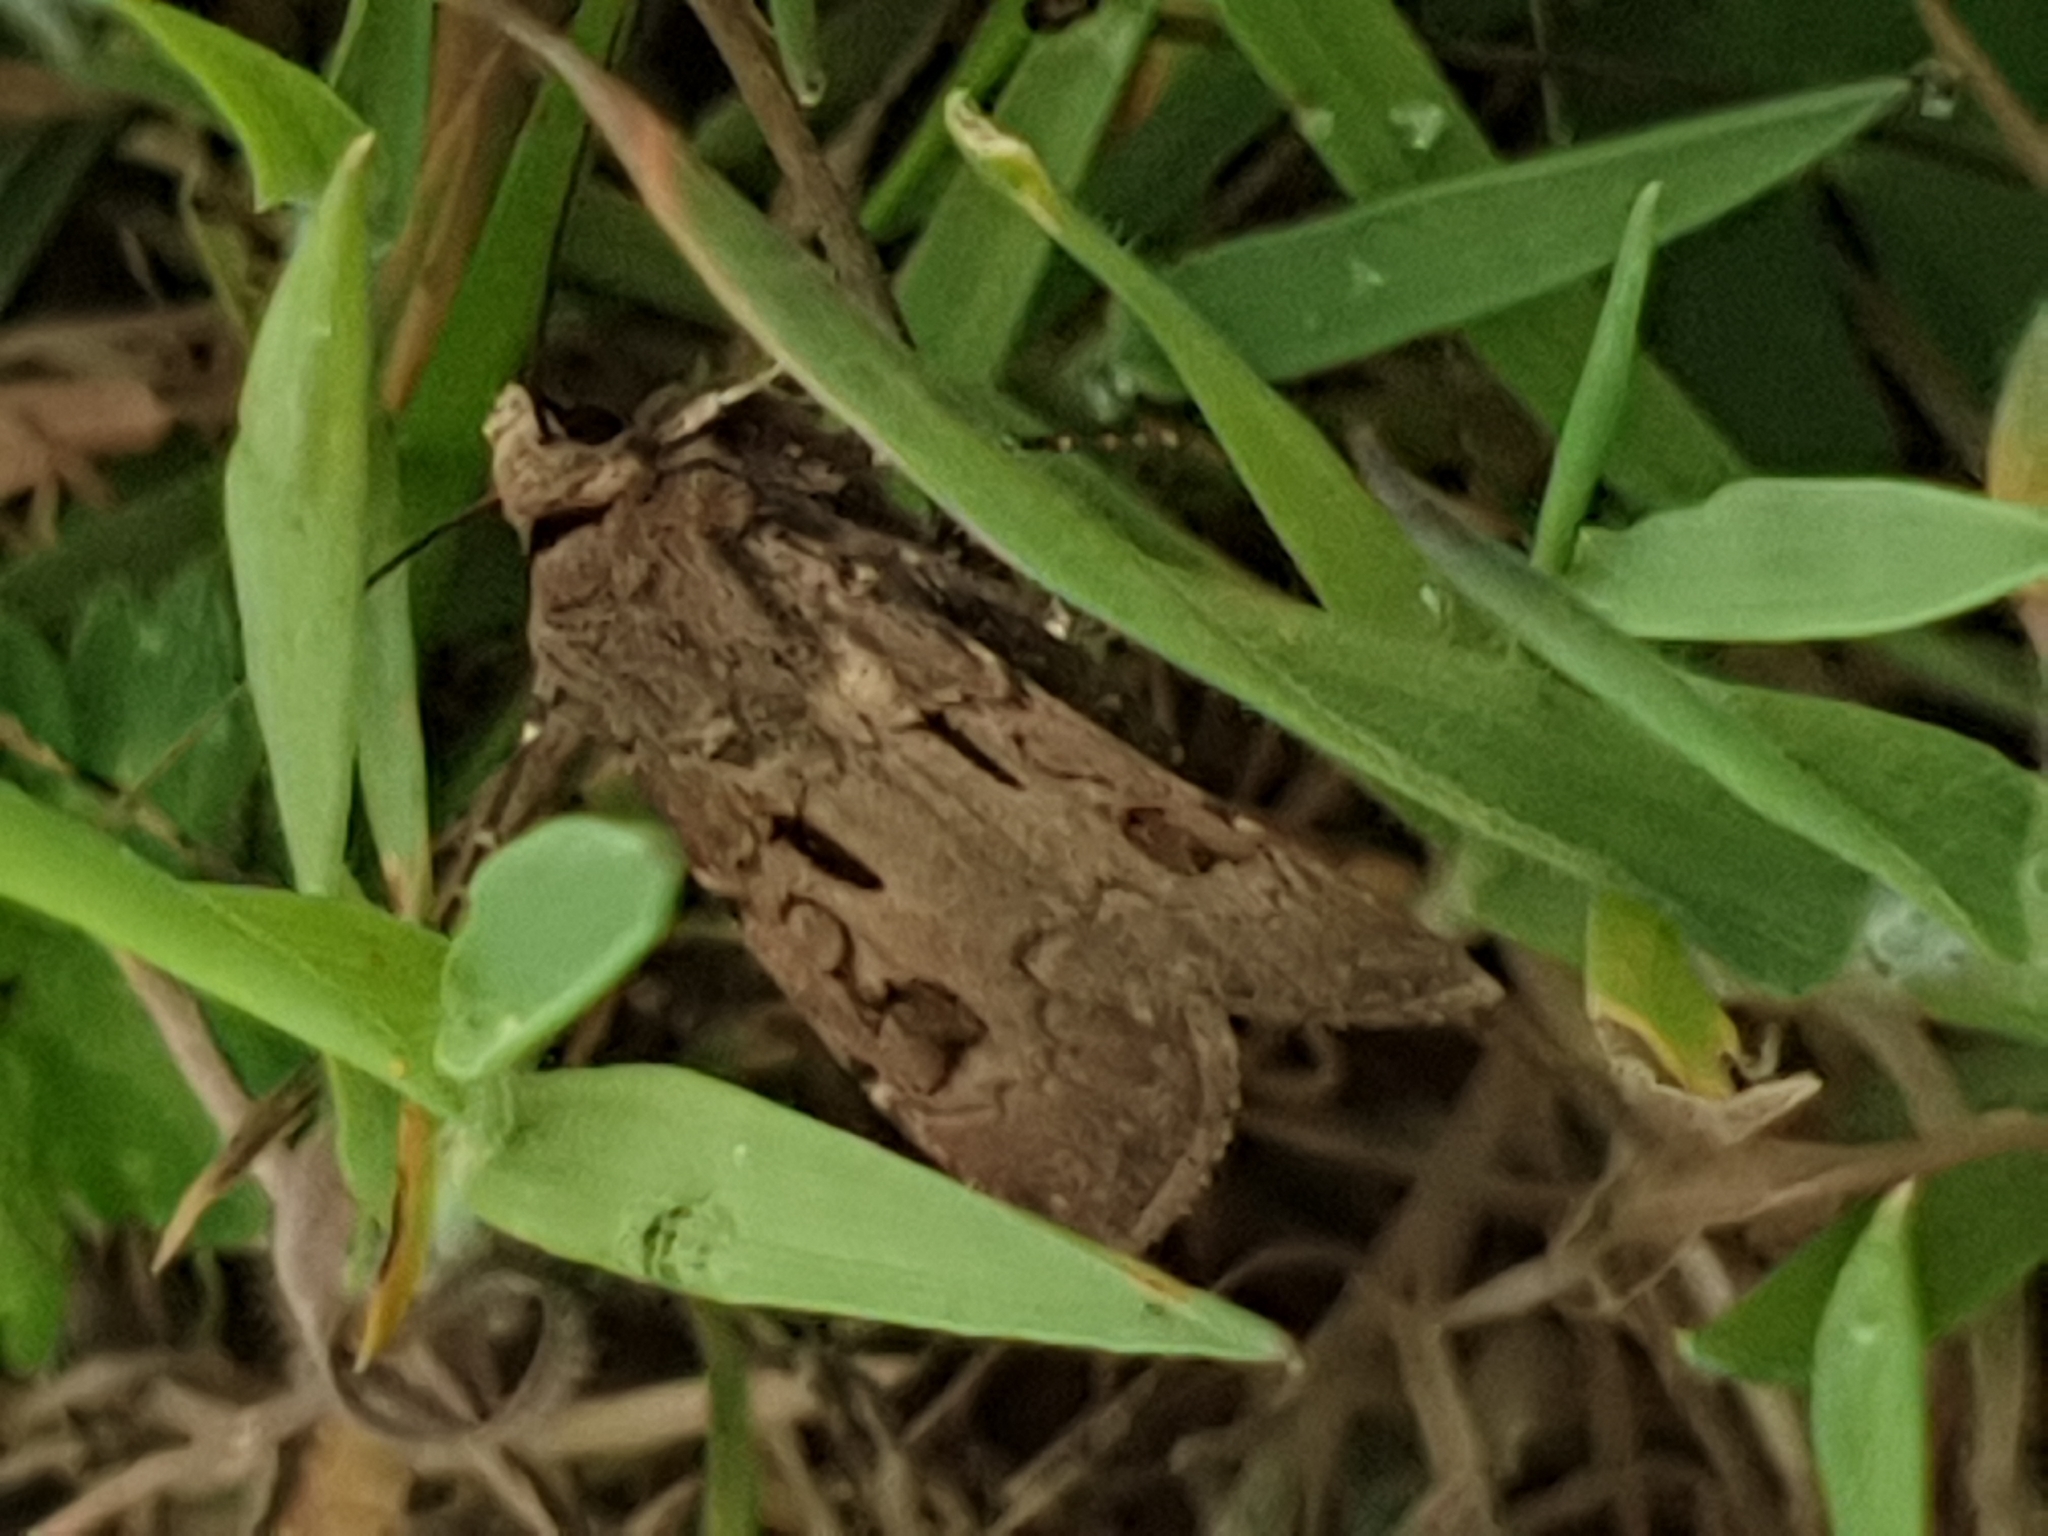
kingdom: Animalia
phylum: Arthropoda
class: Insecta
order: Lepidoptera
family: Noctuidae
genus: Agrotis
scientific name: Agrotis exclamationis
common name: Heart and dart
